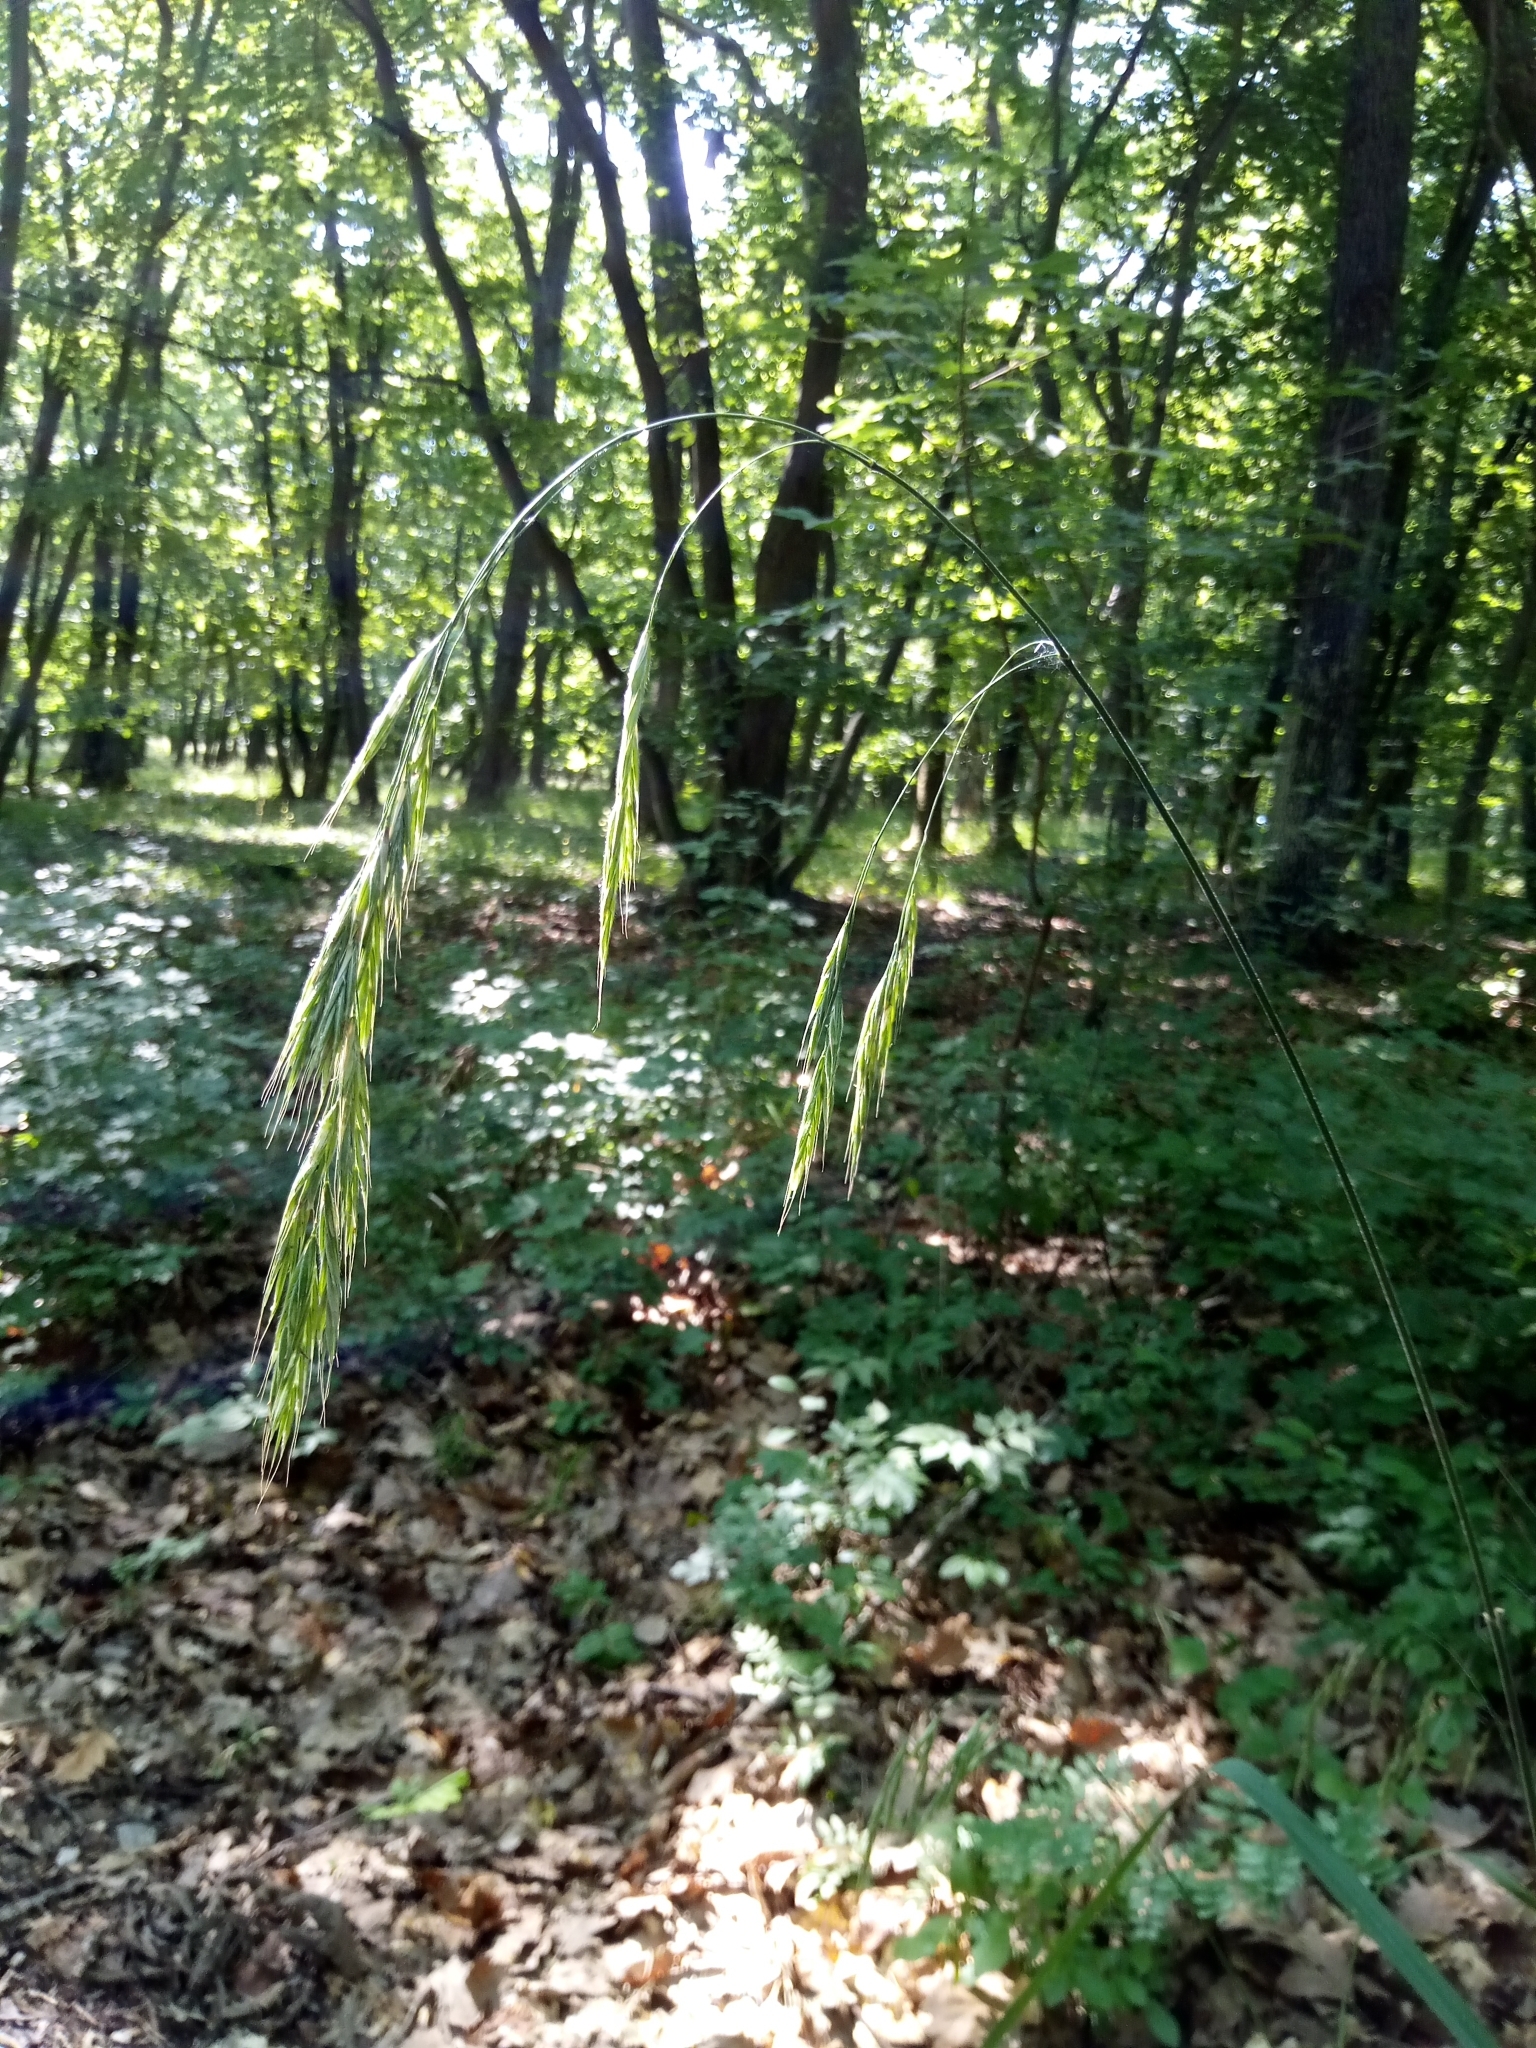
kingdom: Plantae
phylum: Tracheophyta
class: Liliopsida
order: Poales
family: Poaceae
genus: Bromus
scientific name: Bromus benekenii
